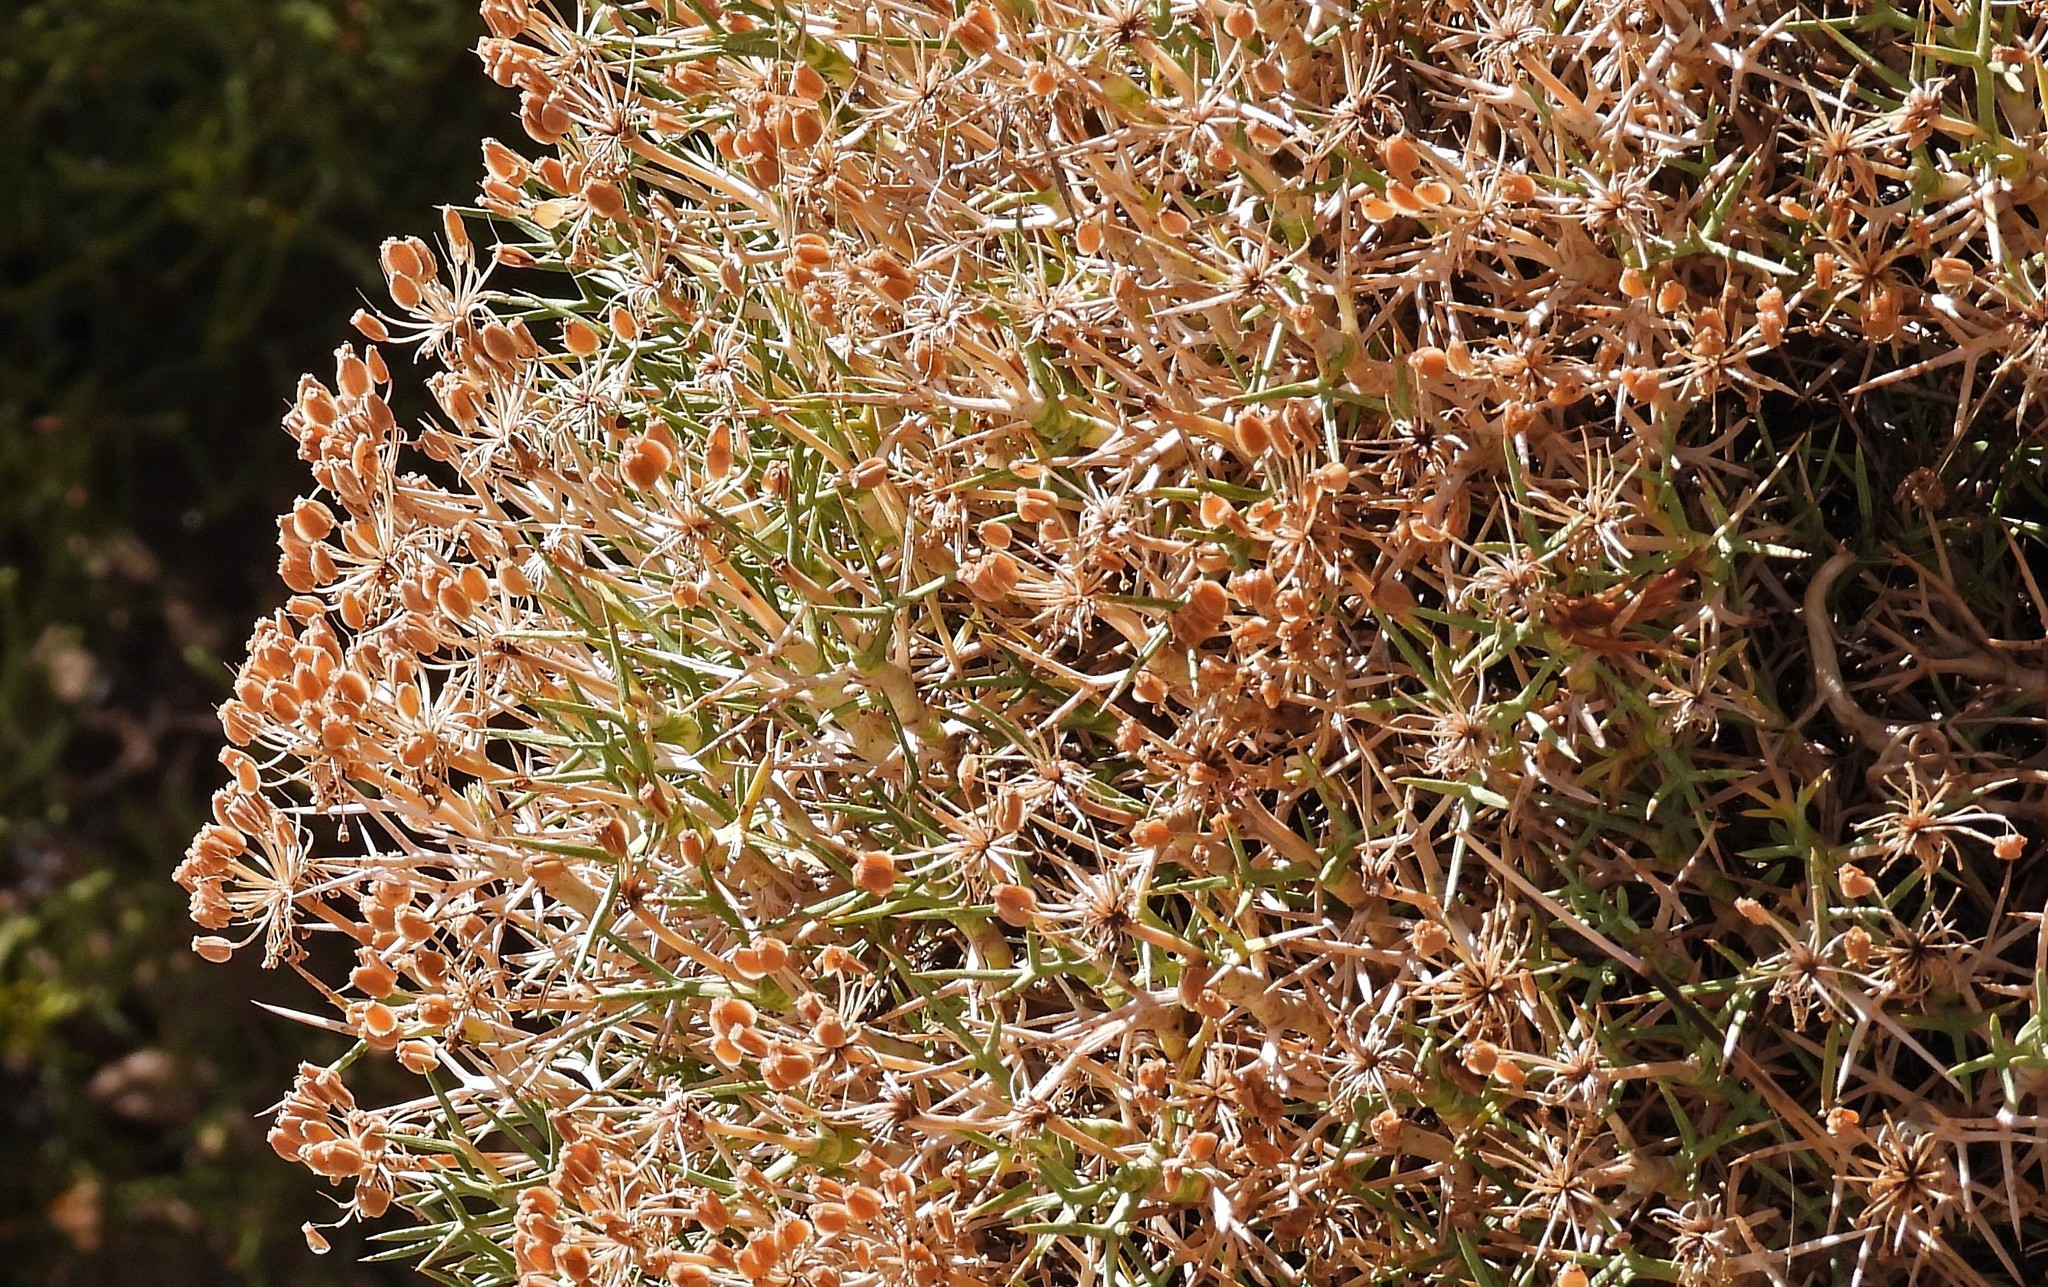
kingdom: Plantae
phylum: Tracheophyta
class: Magnoliopsida
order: Apiales
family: Apiaceae
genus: Azorella
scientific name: Azorella prolifera
